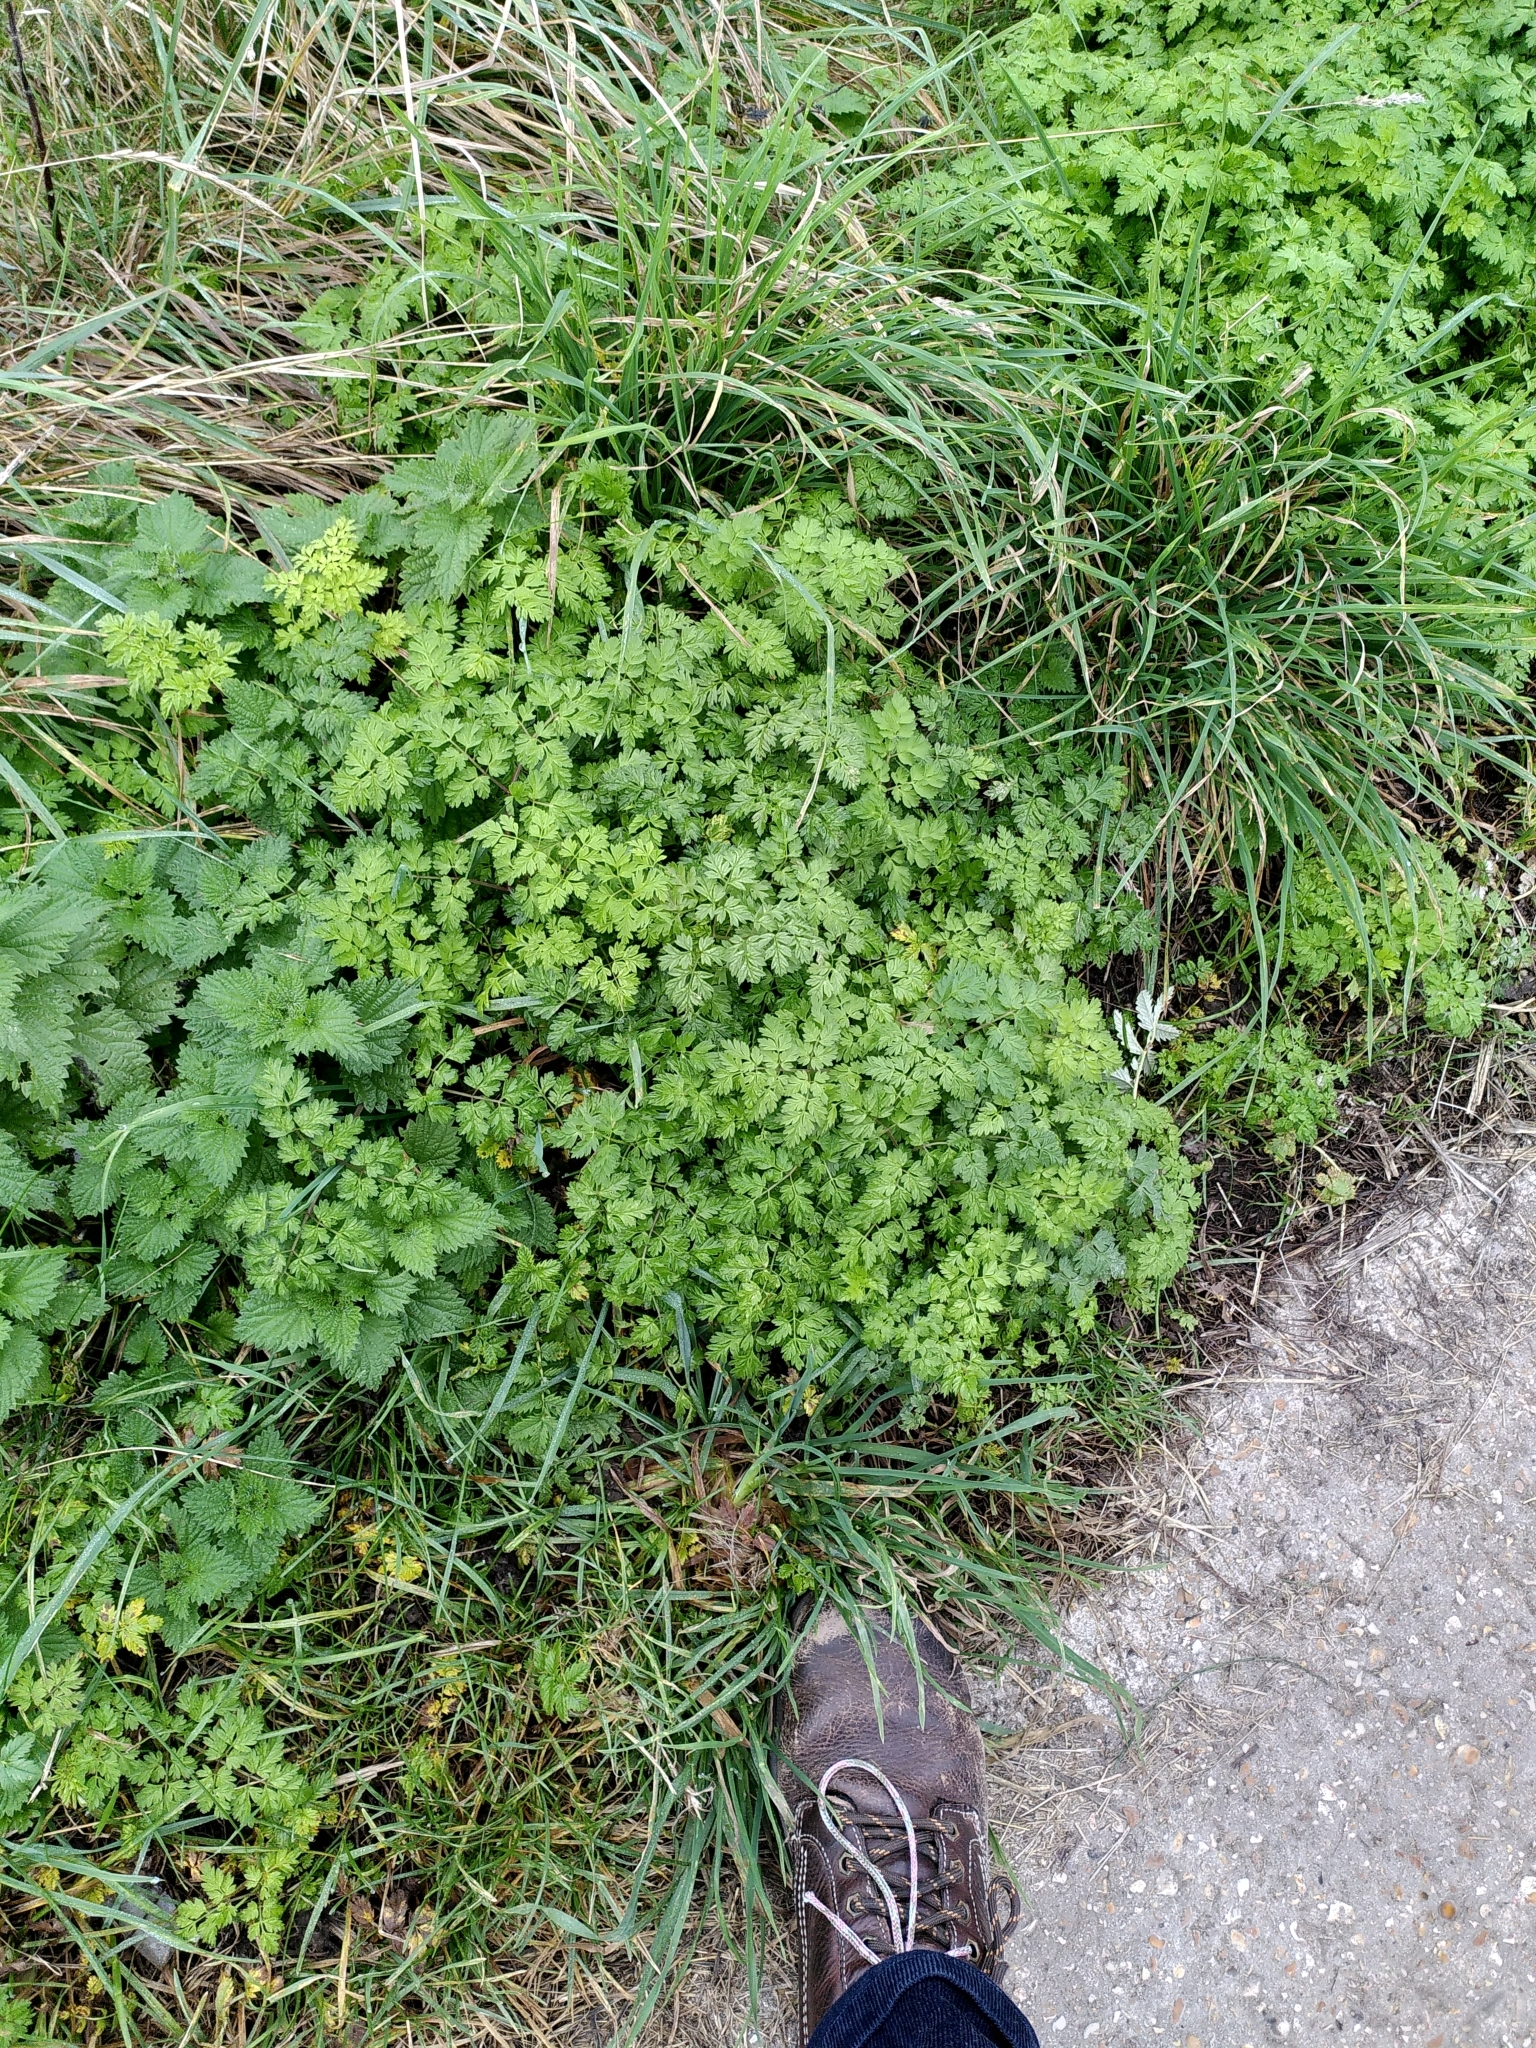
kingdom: Plantae
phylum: Tracheophyta
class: Magnoliopsida
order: Apiales
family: Apiaceae
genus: Anthriscus
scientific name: Anthriscus sylvestris
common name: Cow parsley
